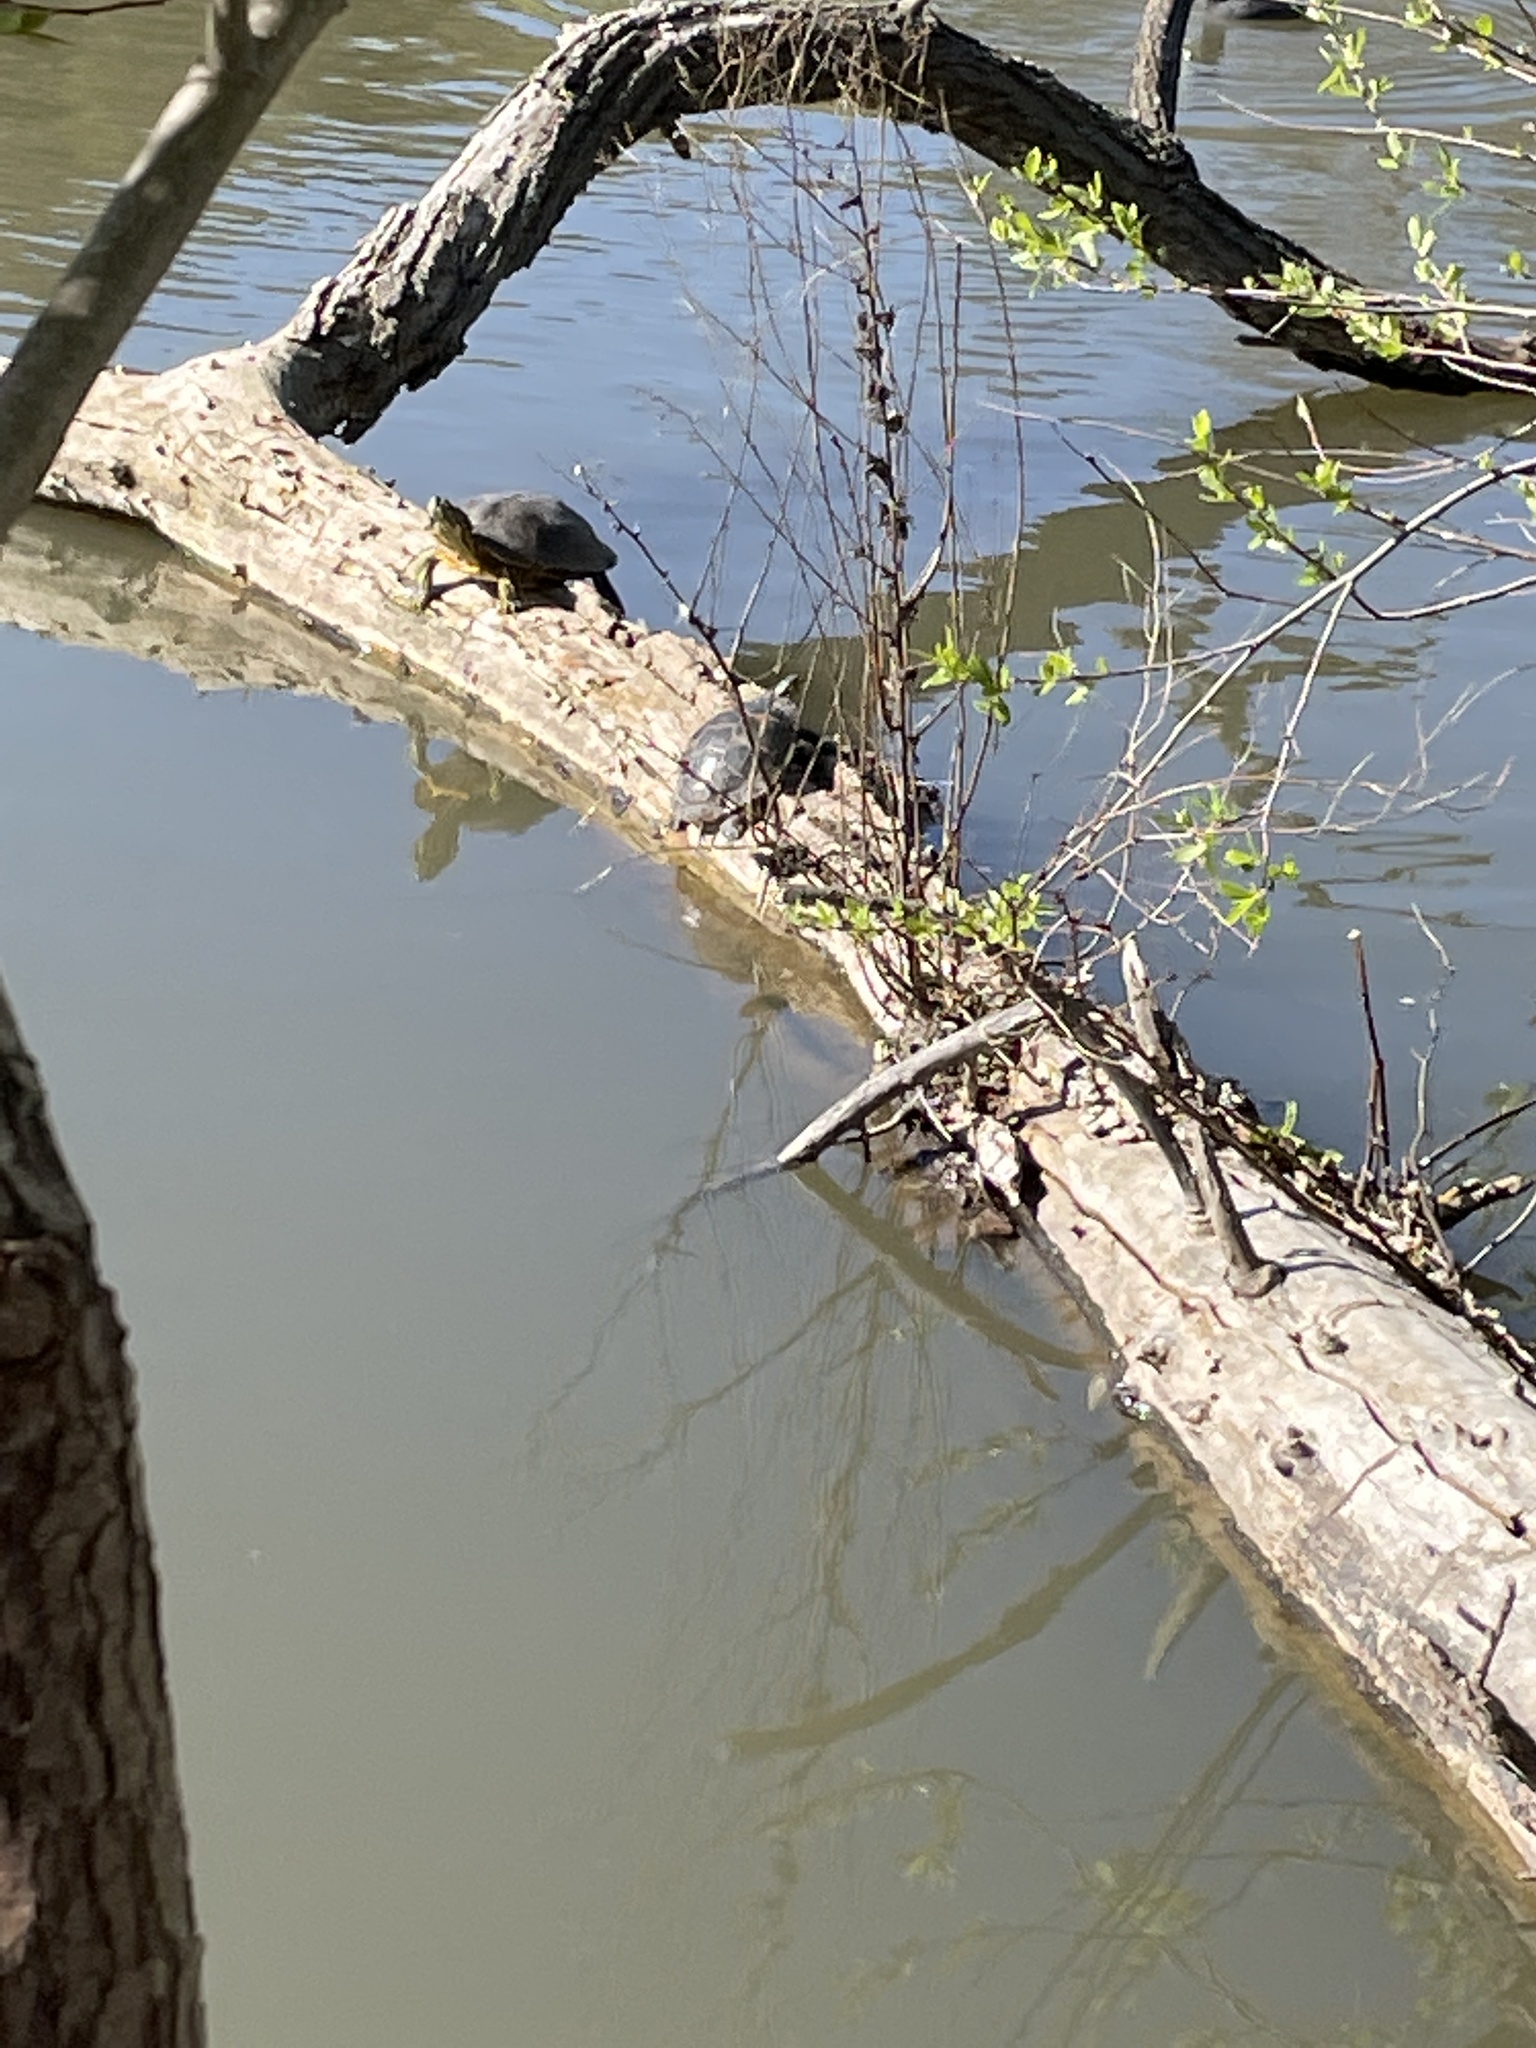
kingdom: Animalia
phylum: Chordata
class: Testudines
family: Emydidae
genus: Trachemys
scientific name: Trachemys scripta
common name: Slider
